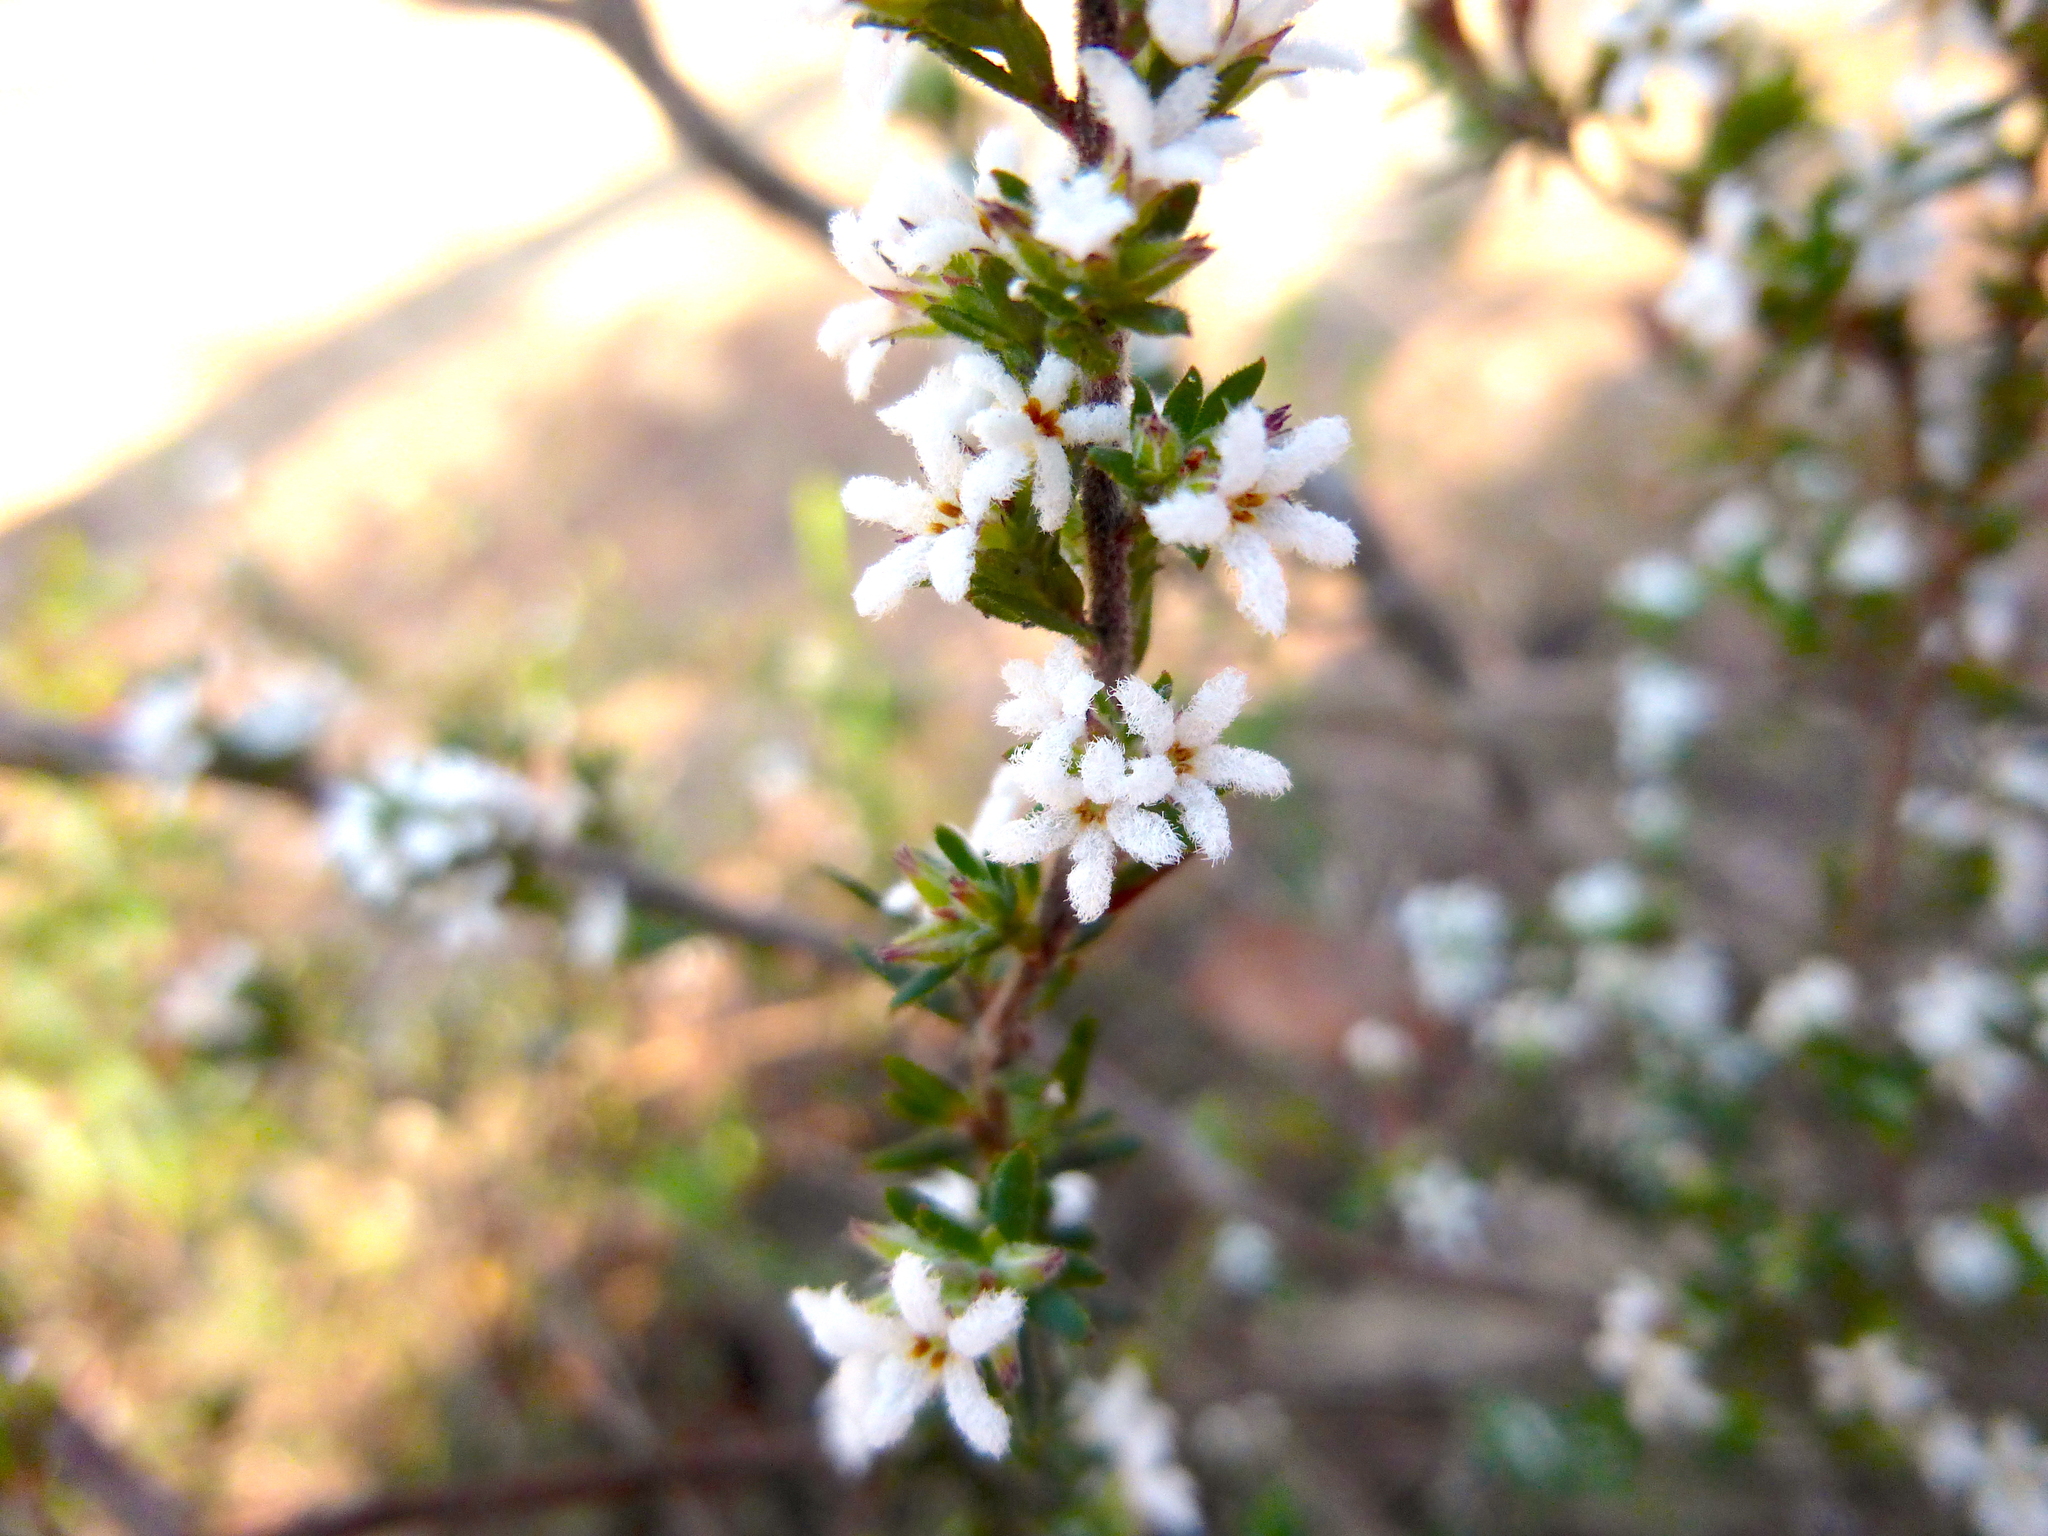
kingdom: Plantae
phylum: Tracheophyta
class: Magnoliopsida
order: Ericales
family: Ericaceae
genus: Leucopogon
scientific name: Leucopogon microphyllus
